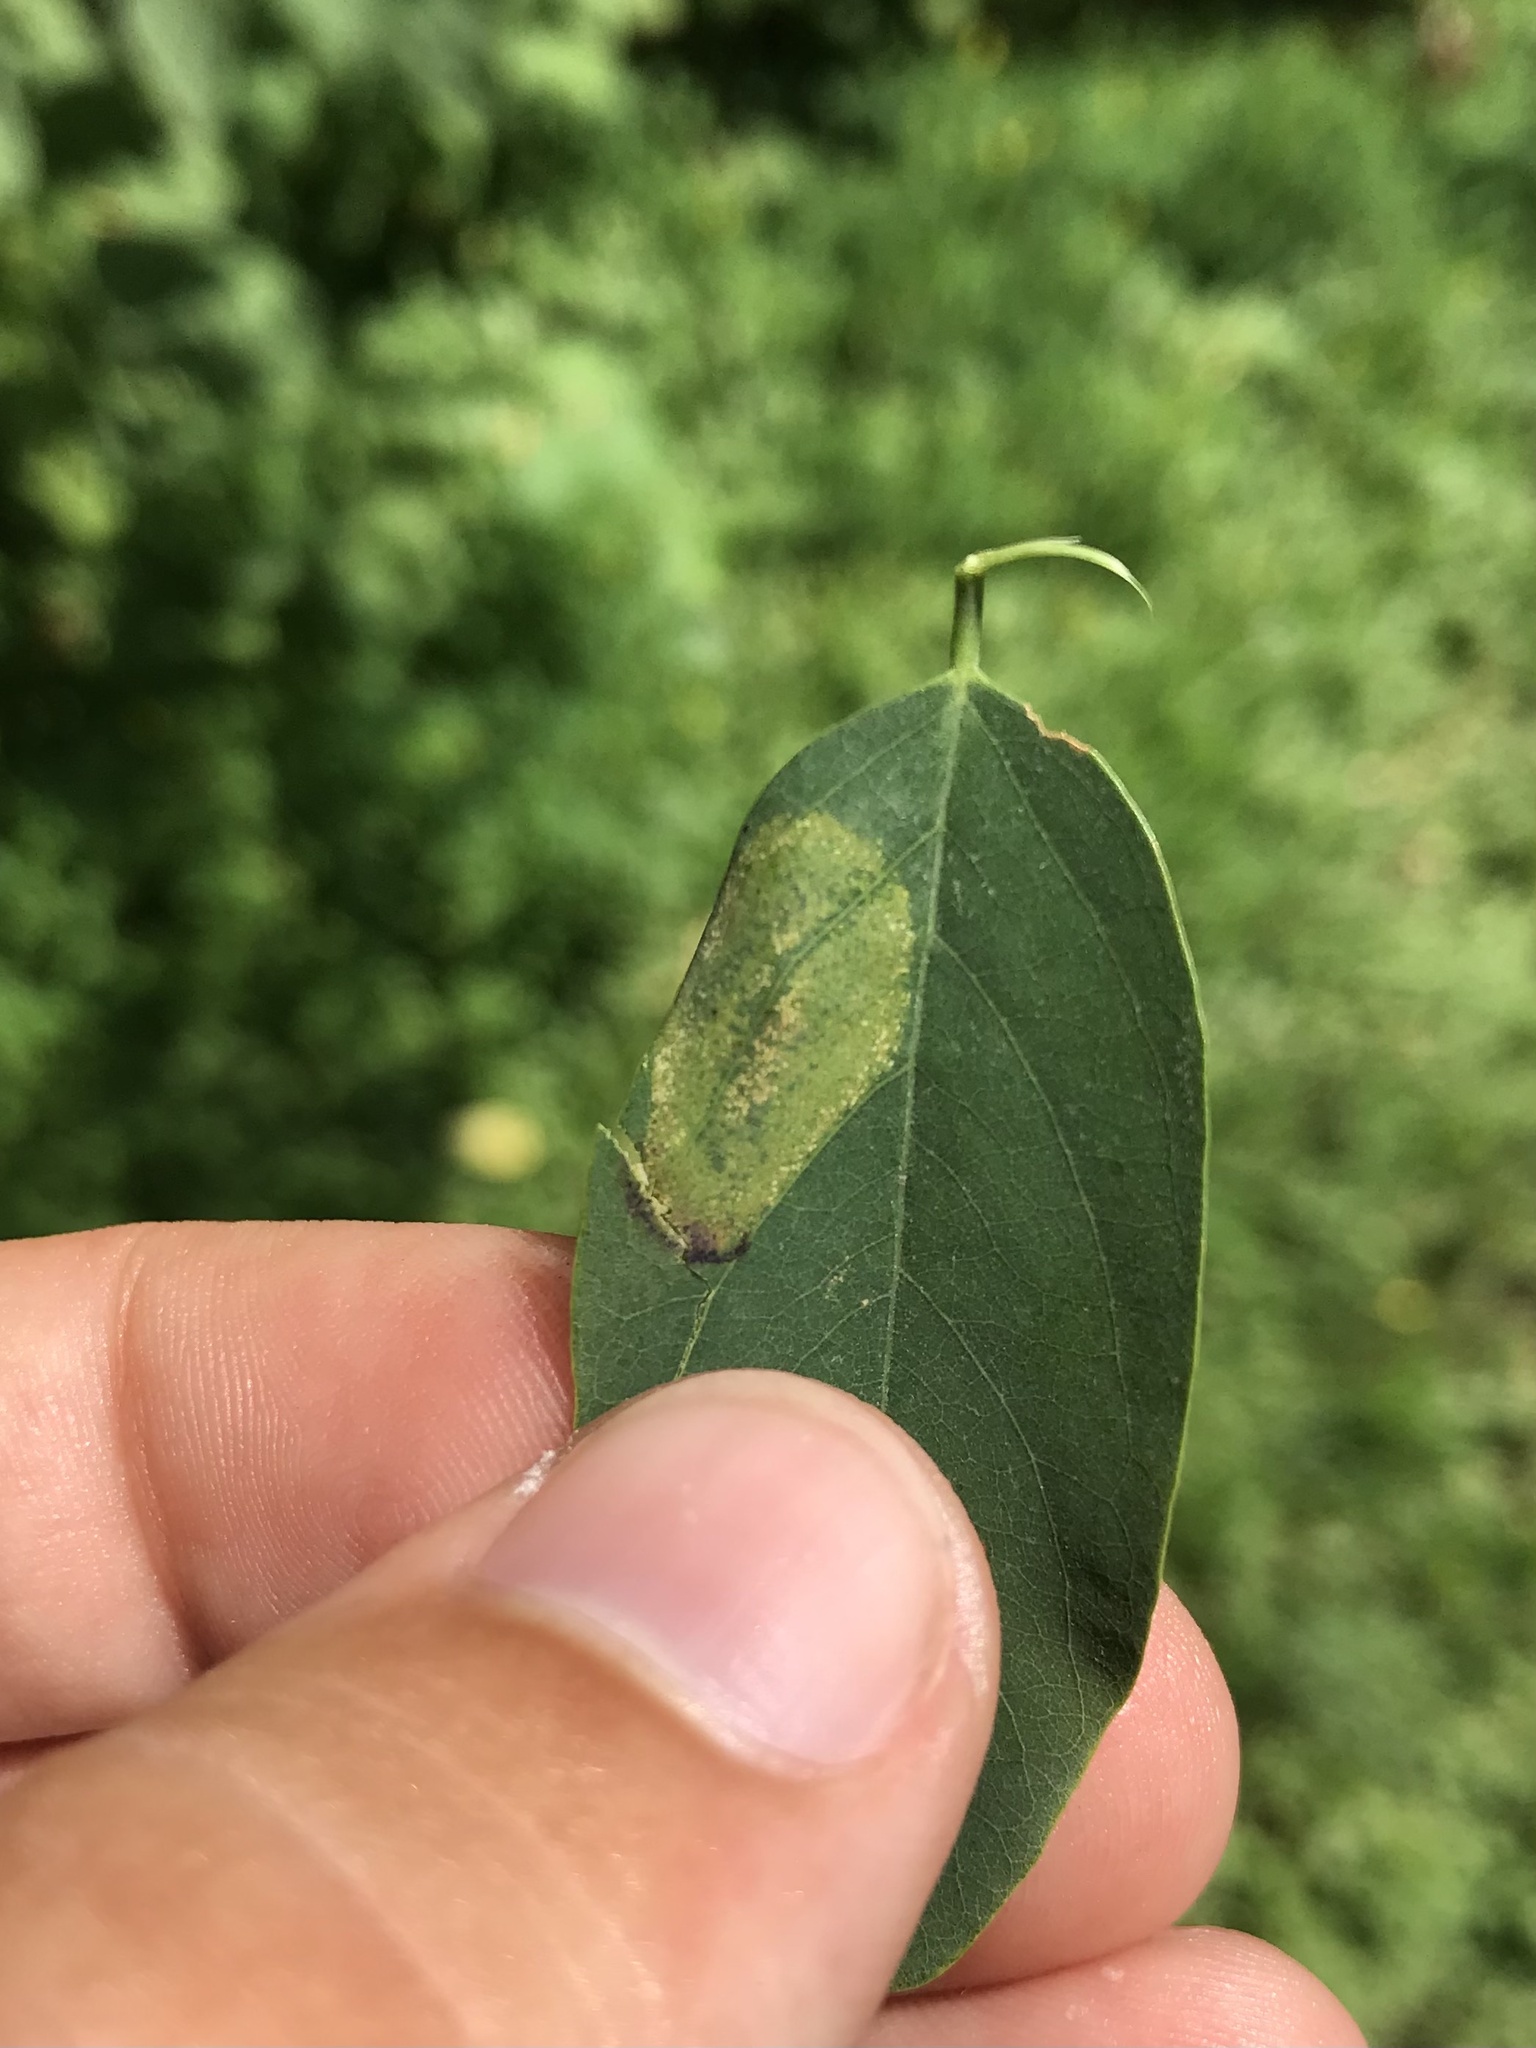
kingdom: Animalia
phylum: Arthropoda
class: Insecta
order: Lepidoptera
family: Gracillariidae
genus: Macrosaccus
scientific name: Macrosaccus robiniella
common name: Leaf blotch miner moth
